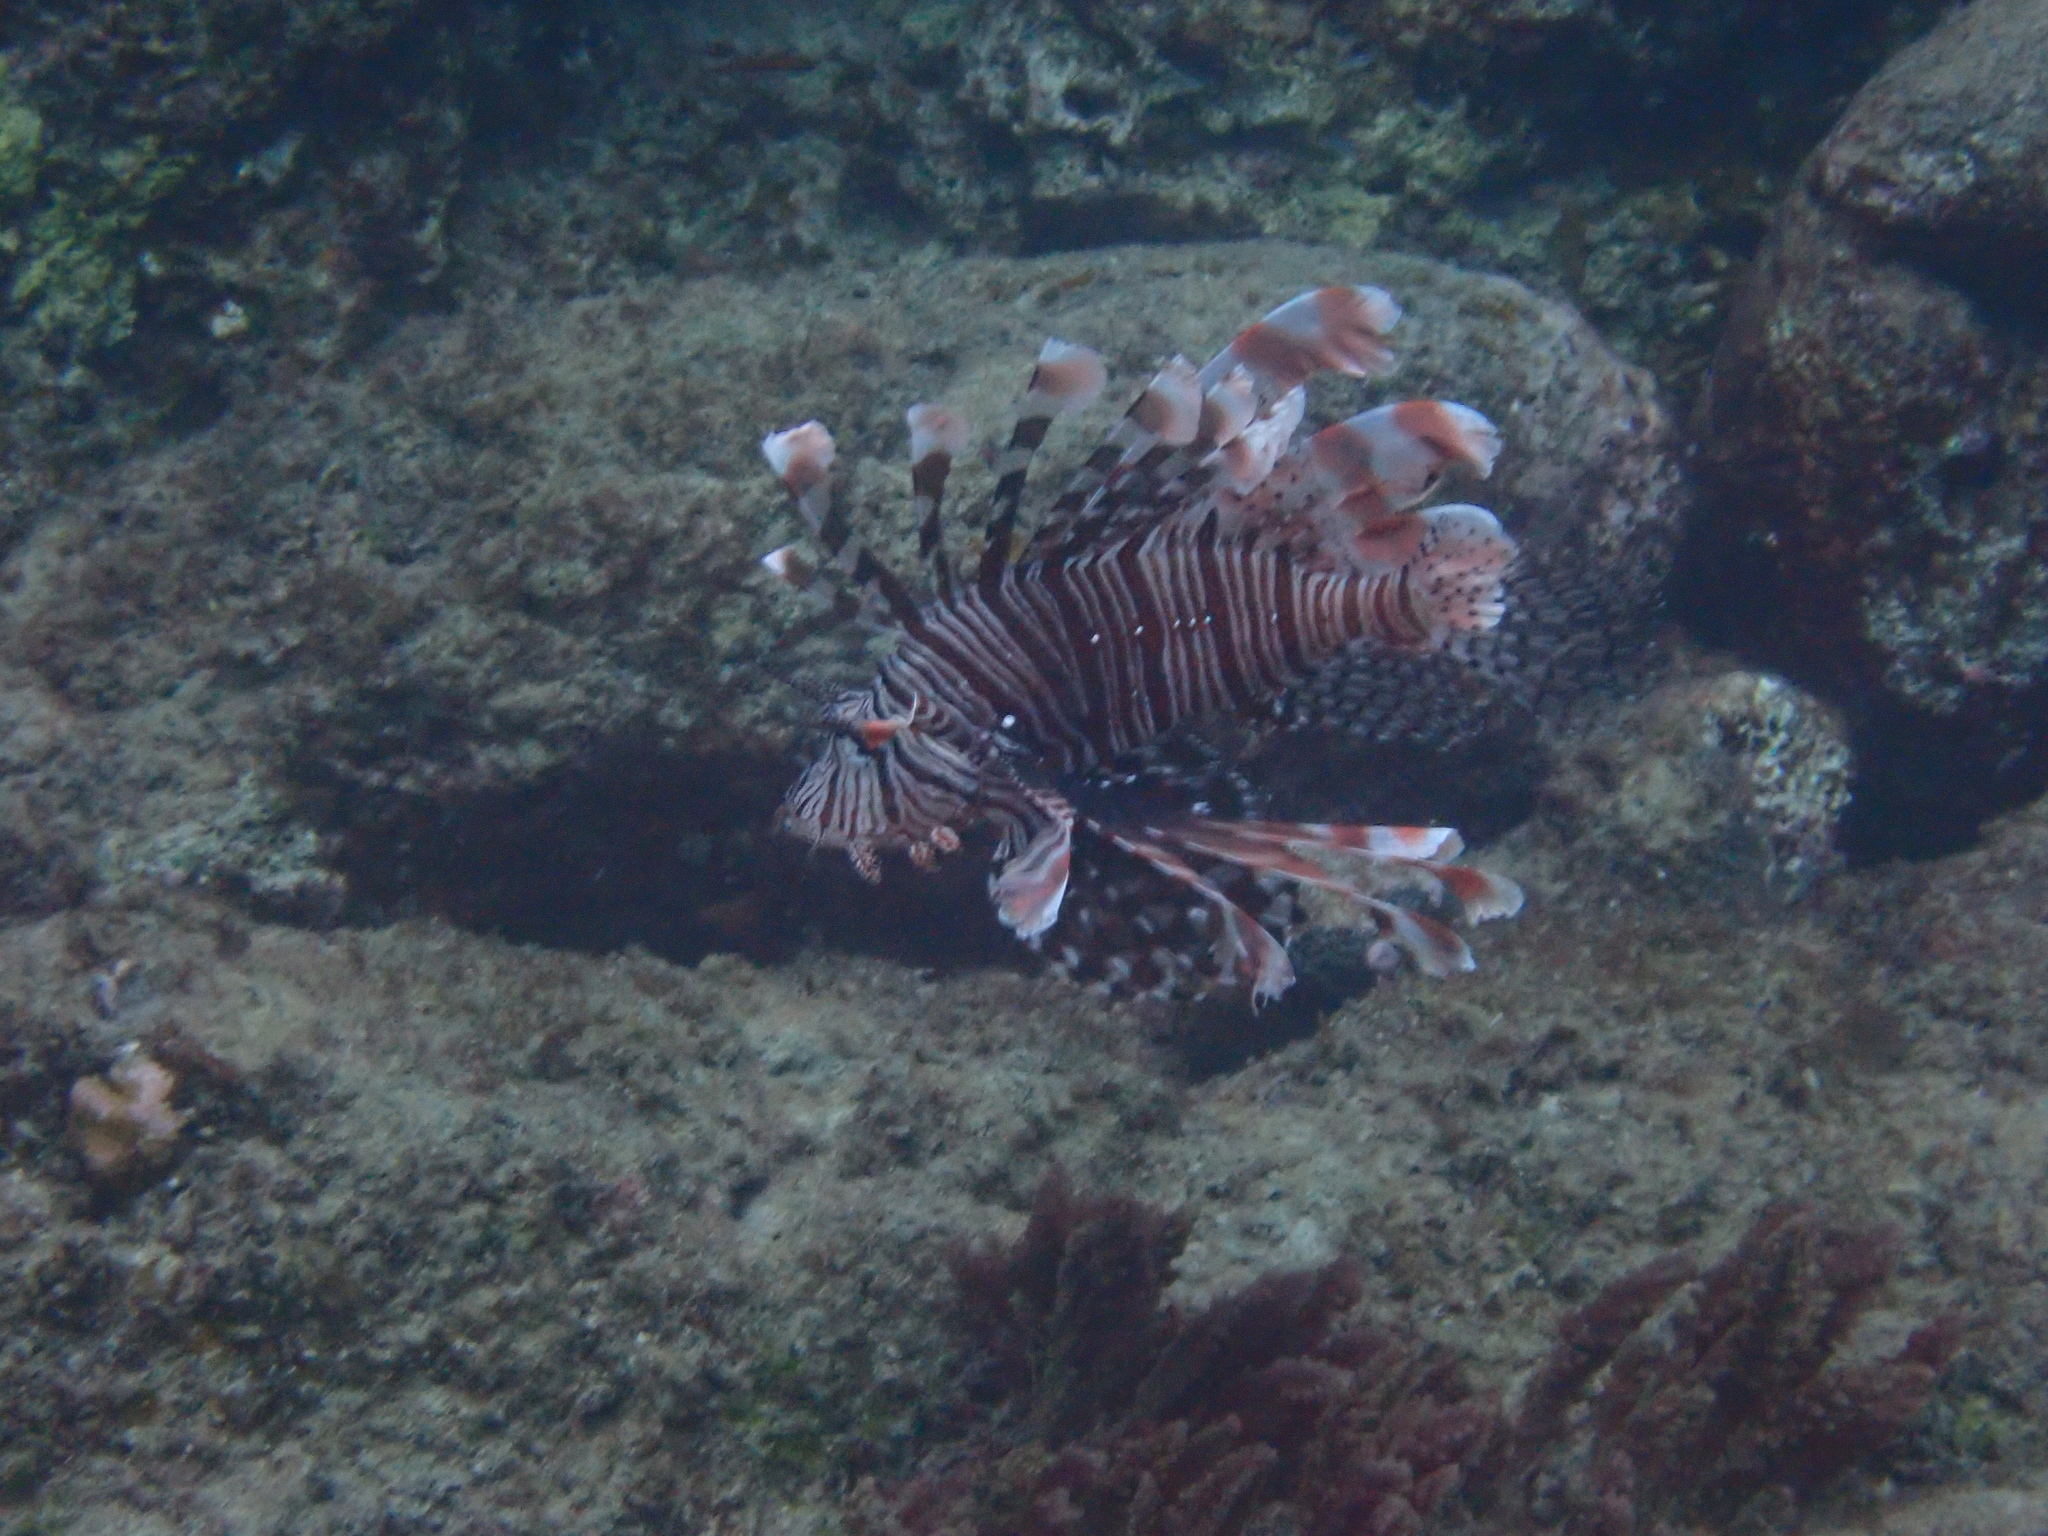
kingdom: Animalia
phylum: Chordata
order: Scorpaeniformes
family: Scorpaenidae
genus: Pterois
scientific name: Pterois volitans
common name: Lionfish
